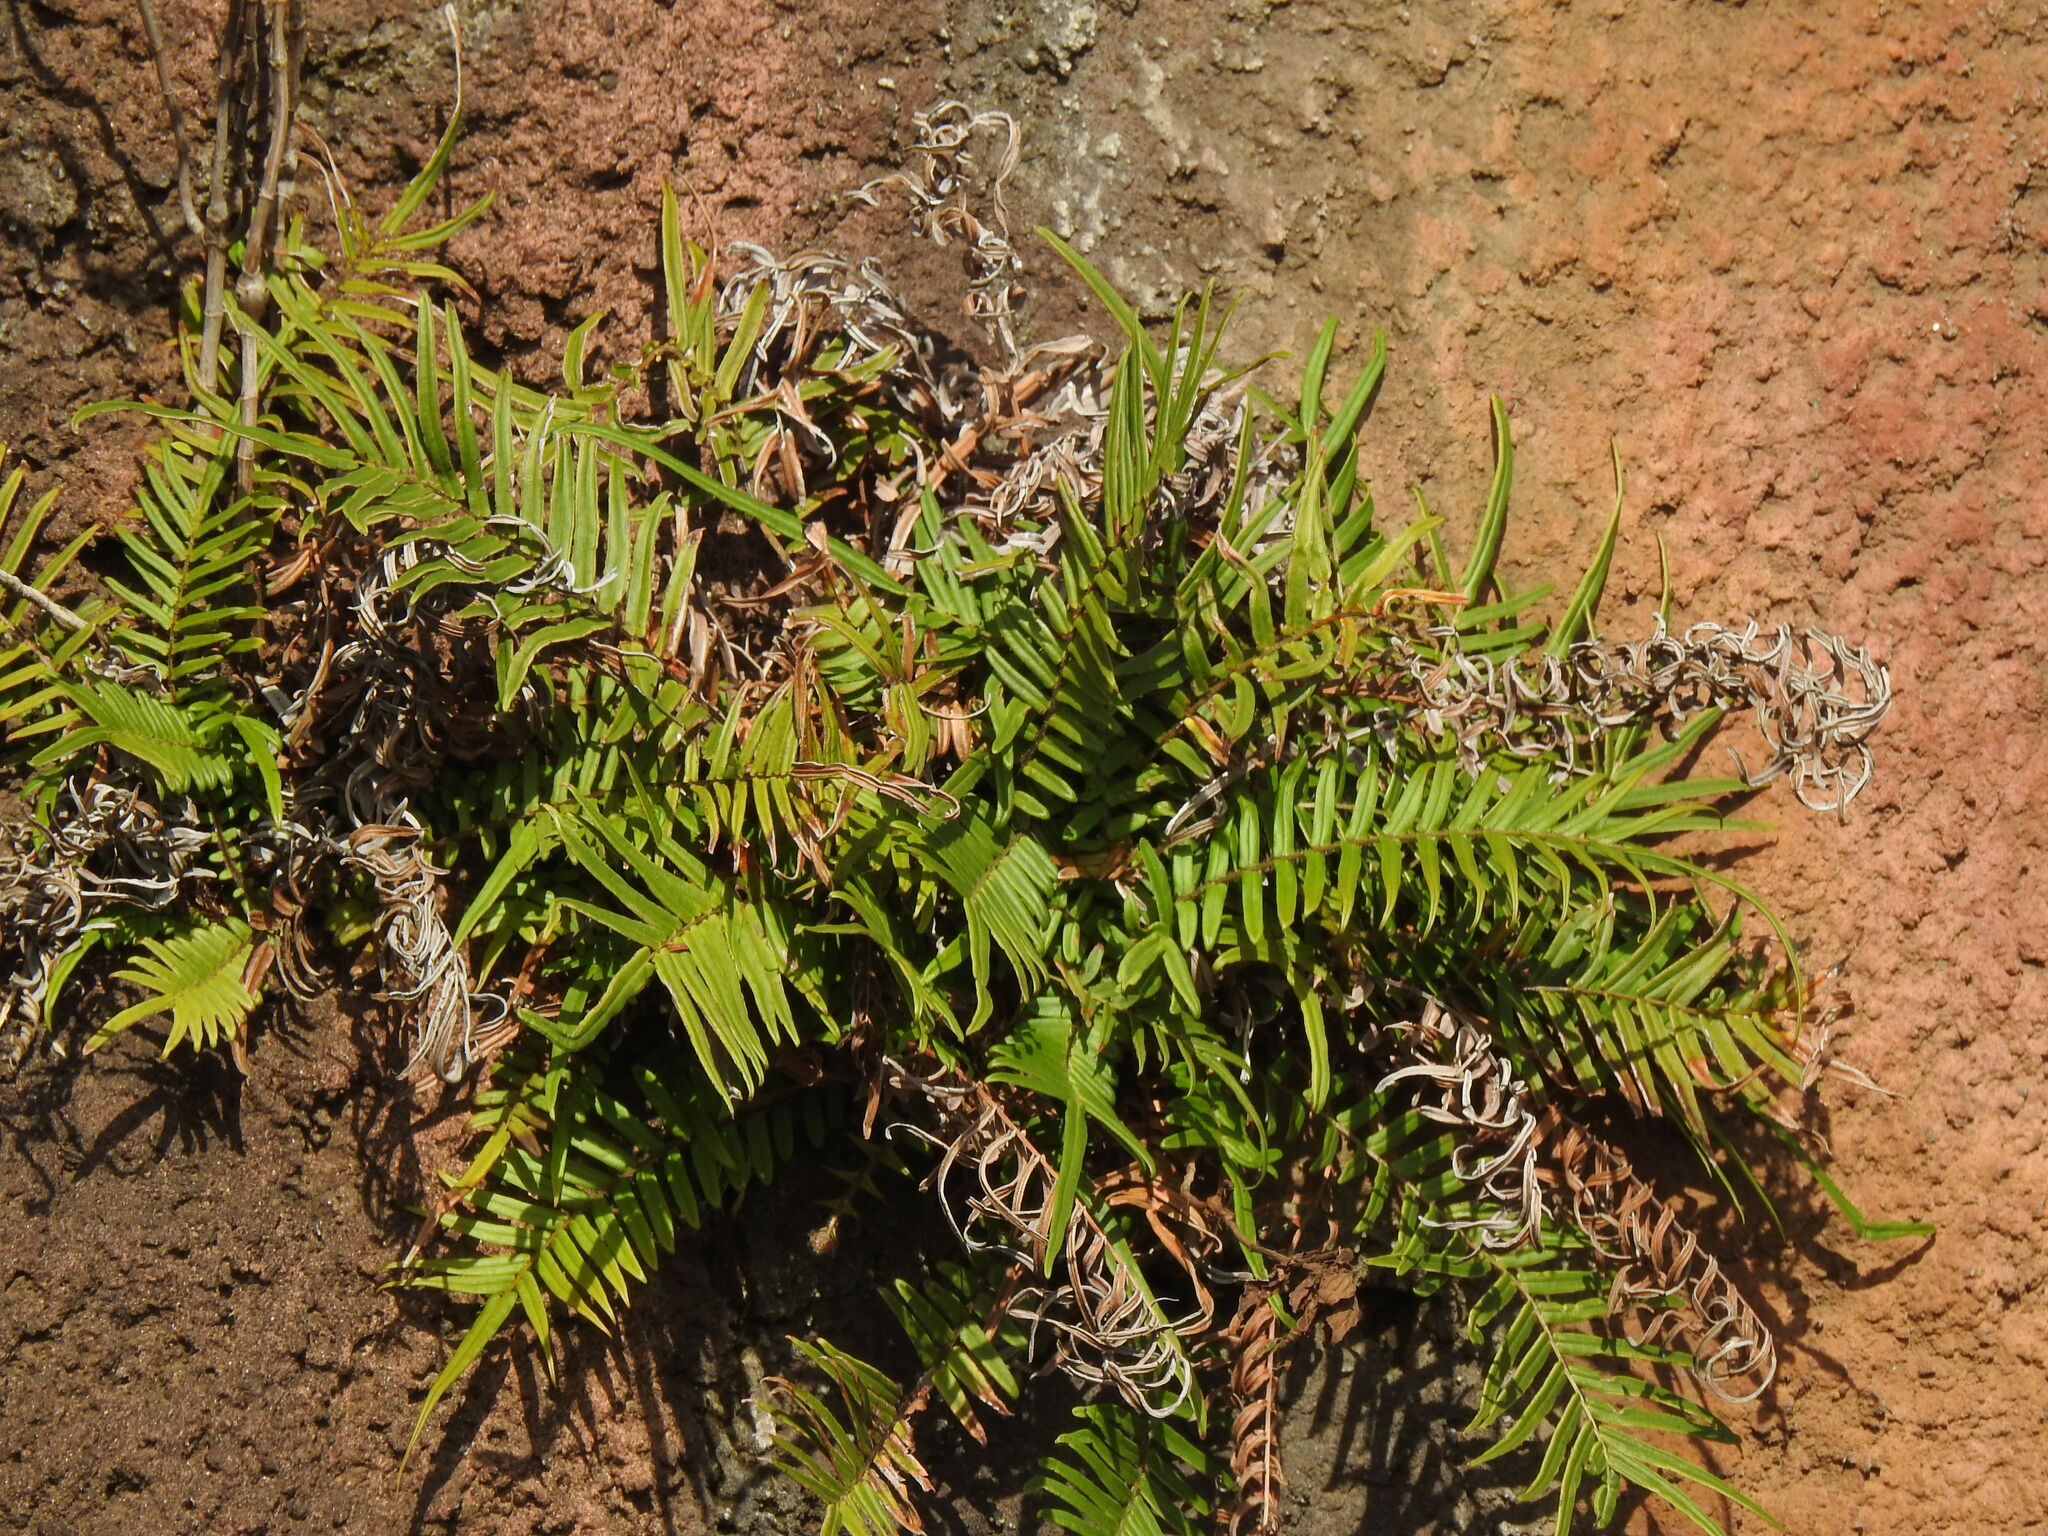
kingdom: Plantae
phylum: Tracheophyta
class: Polypodiopsida
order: Polypodiales
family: Pteridaceae
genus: Pteris
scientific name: Pteris vittata
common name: Ladder brake
